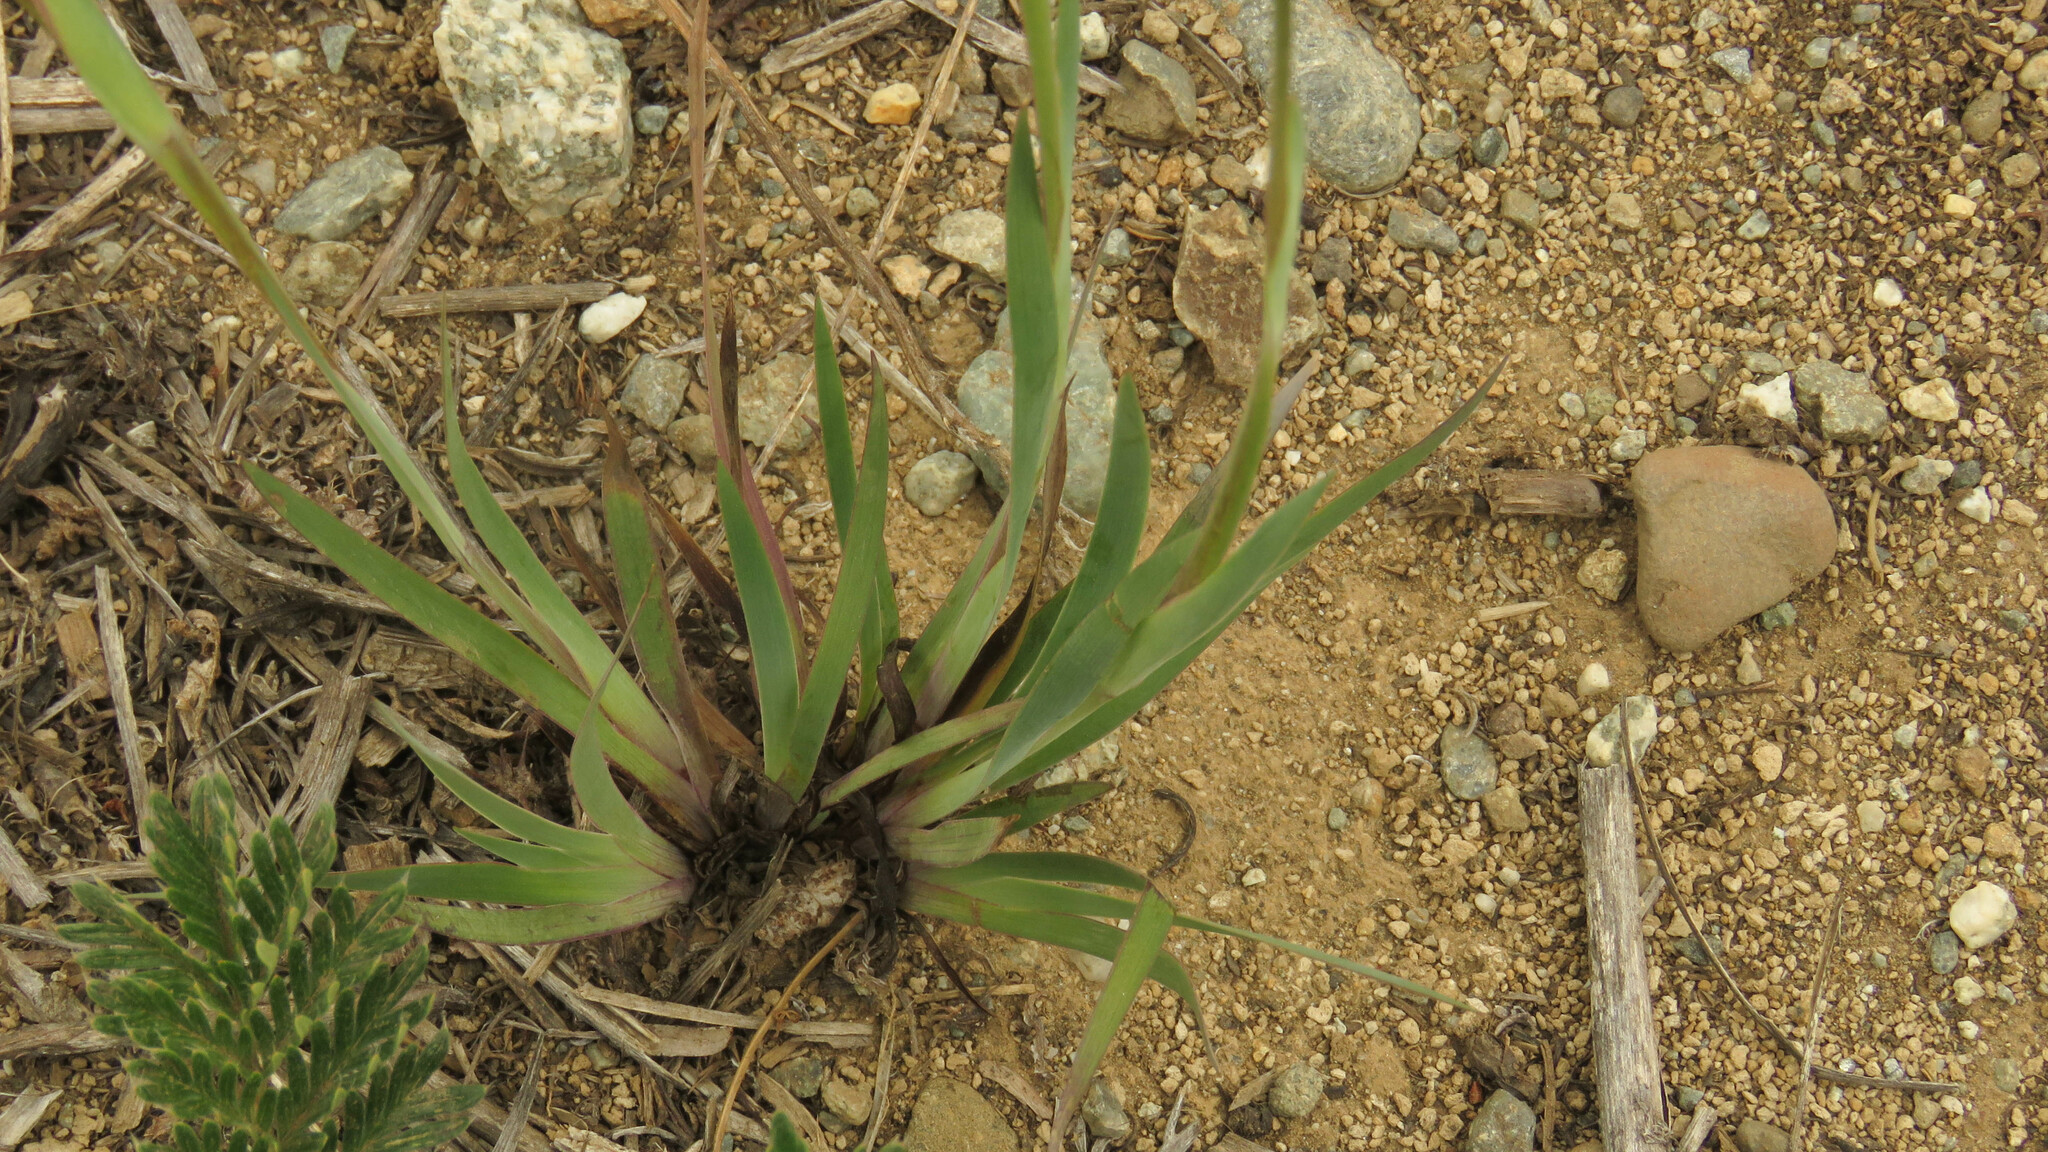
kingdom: Plantae
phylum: Tracheophyta
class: Liliopsida
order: Asparagales
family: Iridaceae
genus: Sisyrinchium
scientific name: Sisyrinchium arenarium
